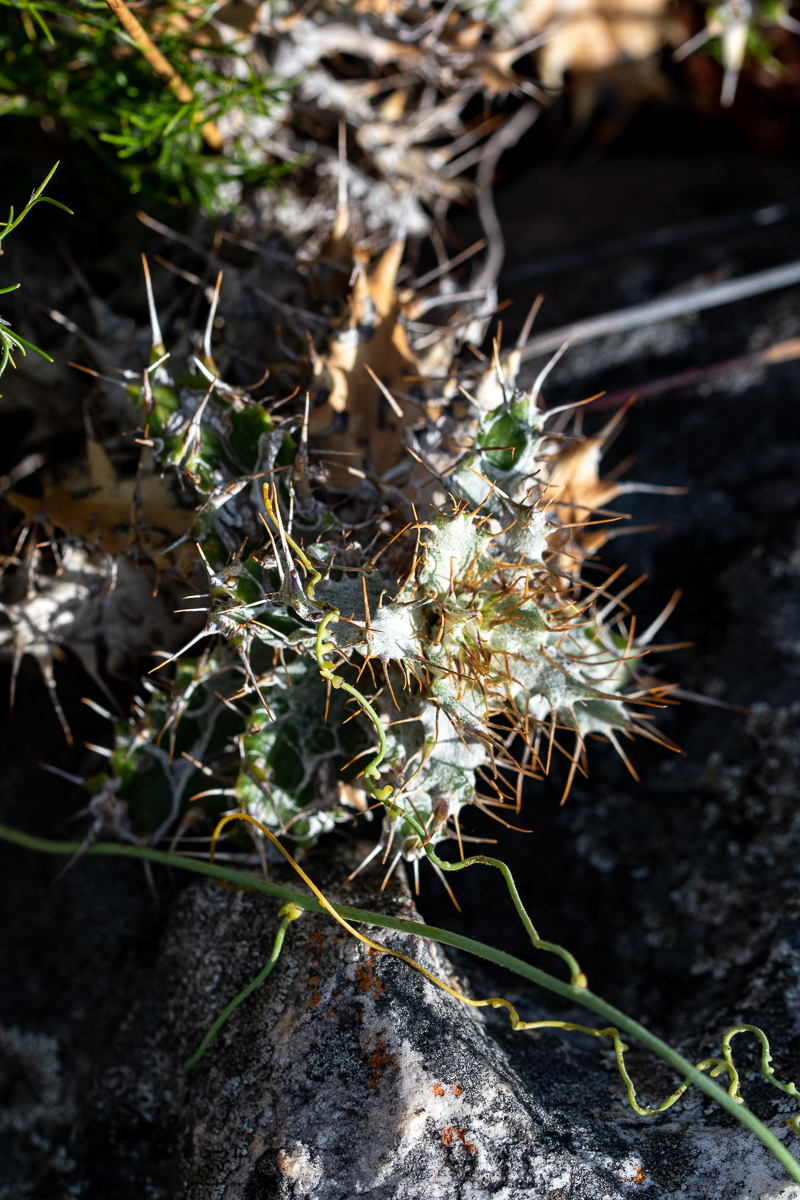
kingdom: Plantae
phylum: Tracheophyta
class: Magnoliopsida
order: Asterales
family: Asteraceae
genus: Berkheya
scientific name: Berkheya barbata
